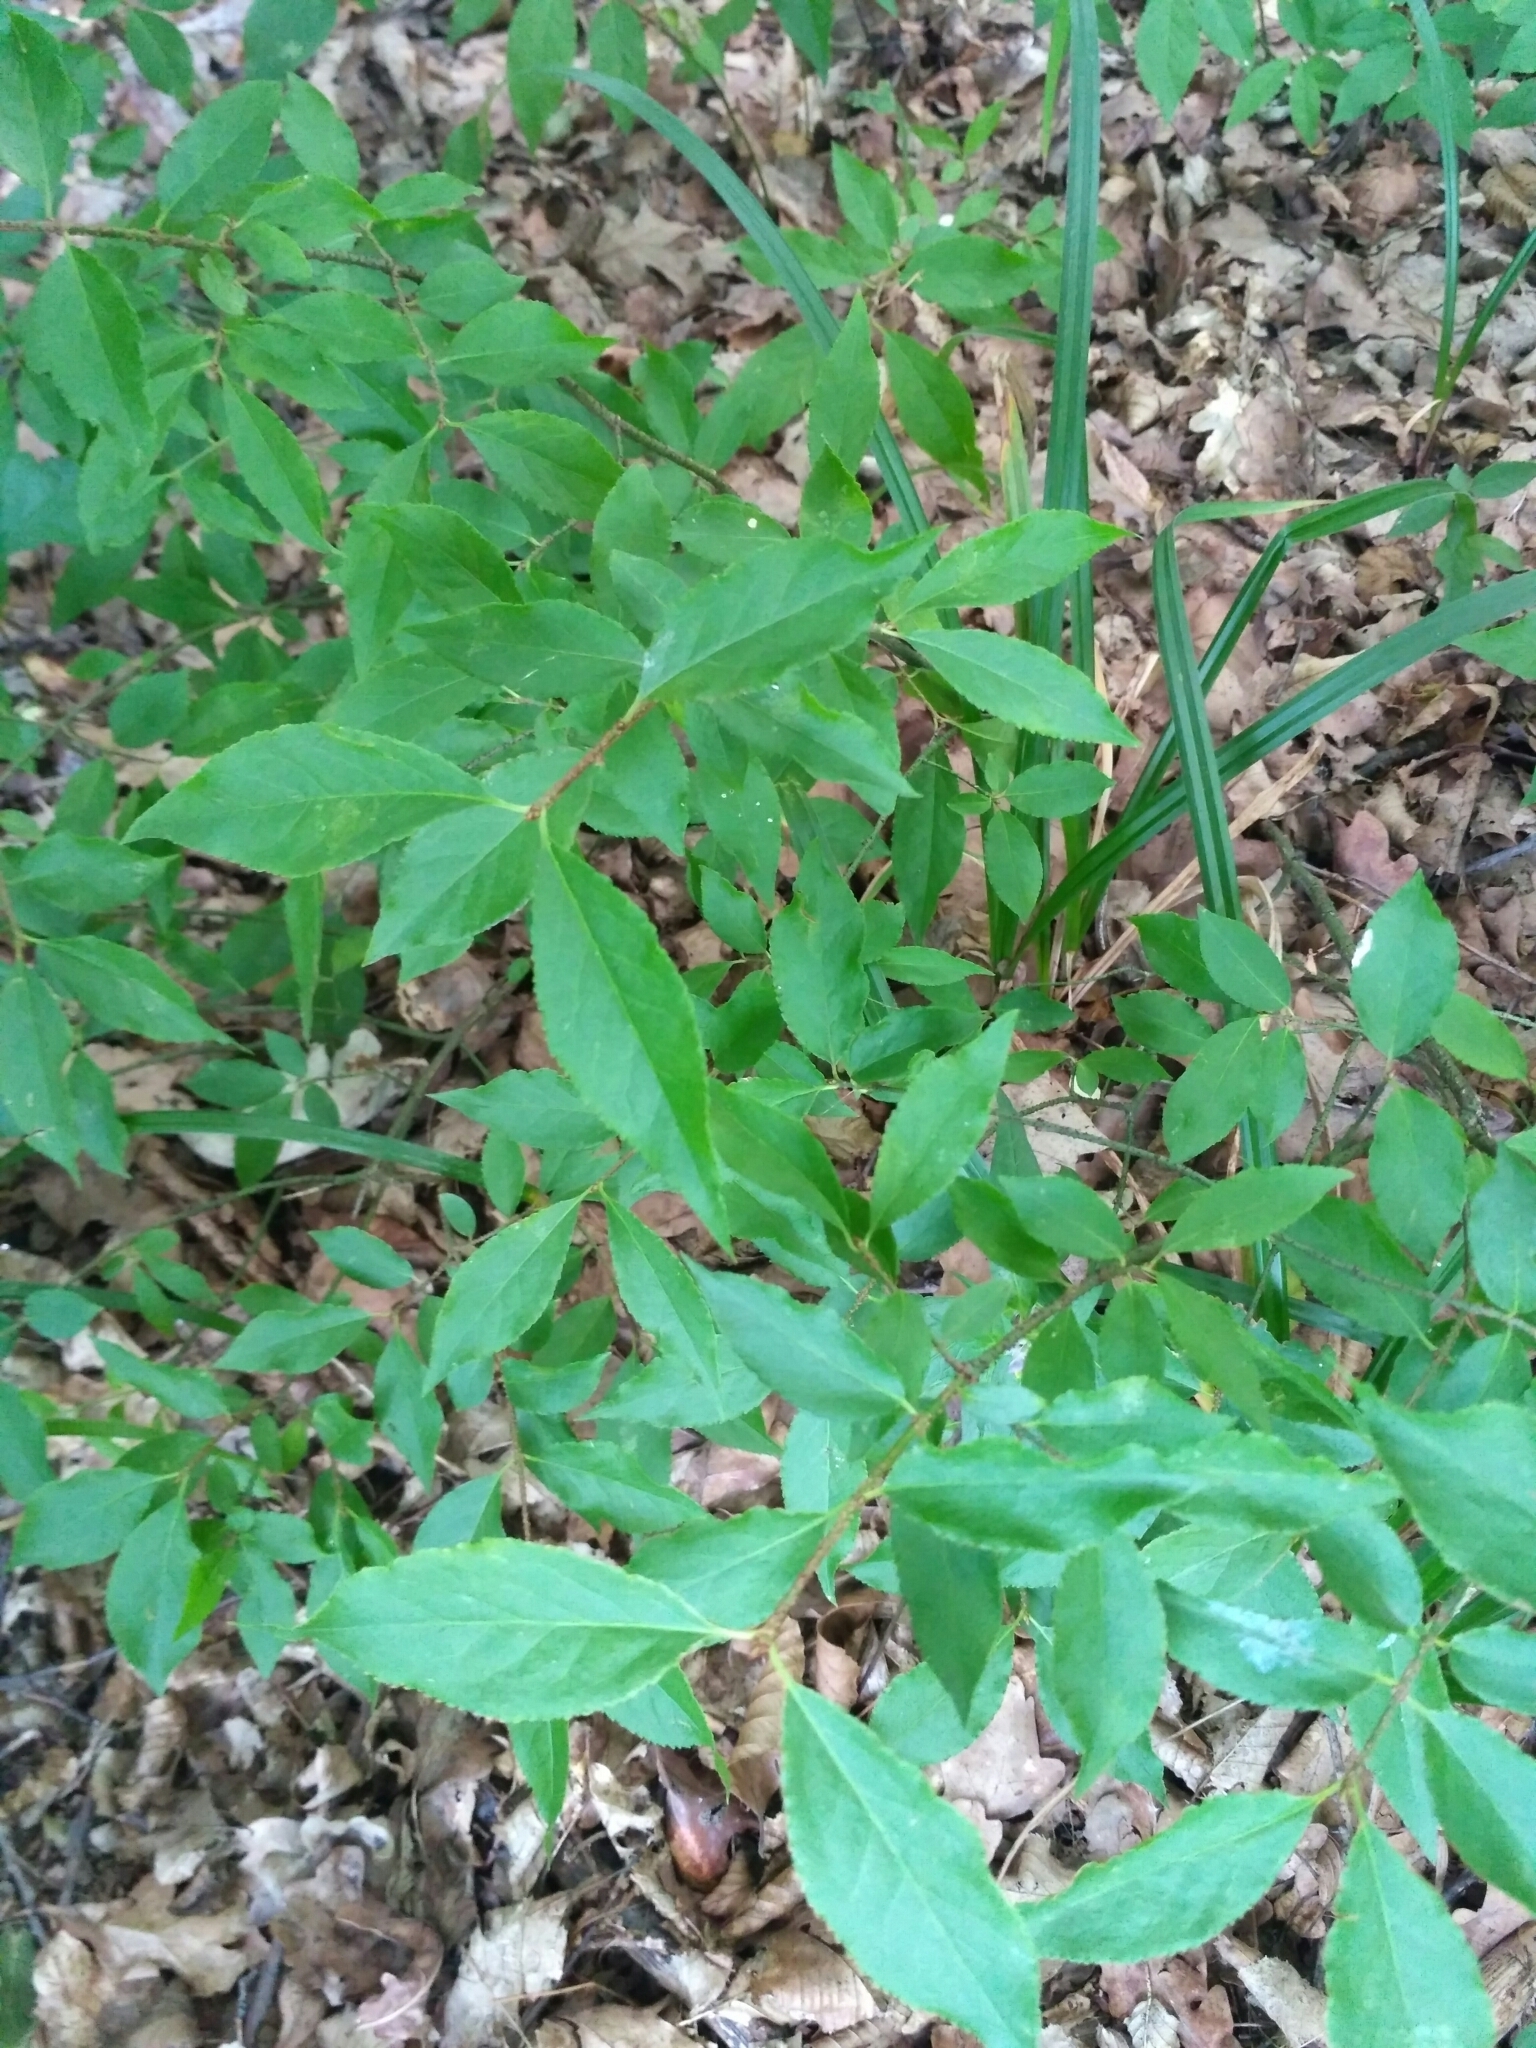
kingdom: Plantae
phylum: Tracheophyta
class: Magnoliopsida
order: Celastrales
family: Celastraceae
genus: Euonymus
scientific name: Euonymus verrucosus
